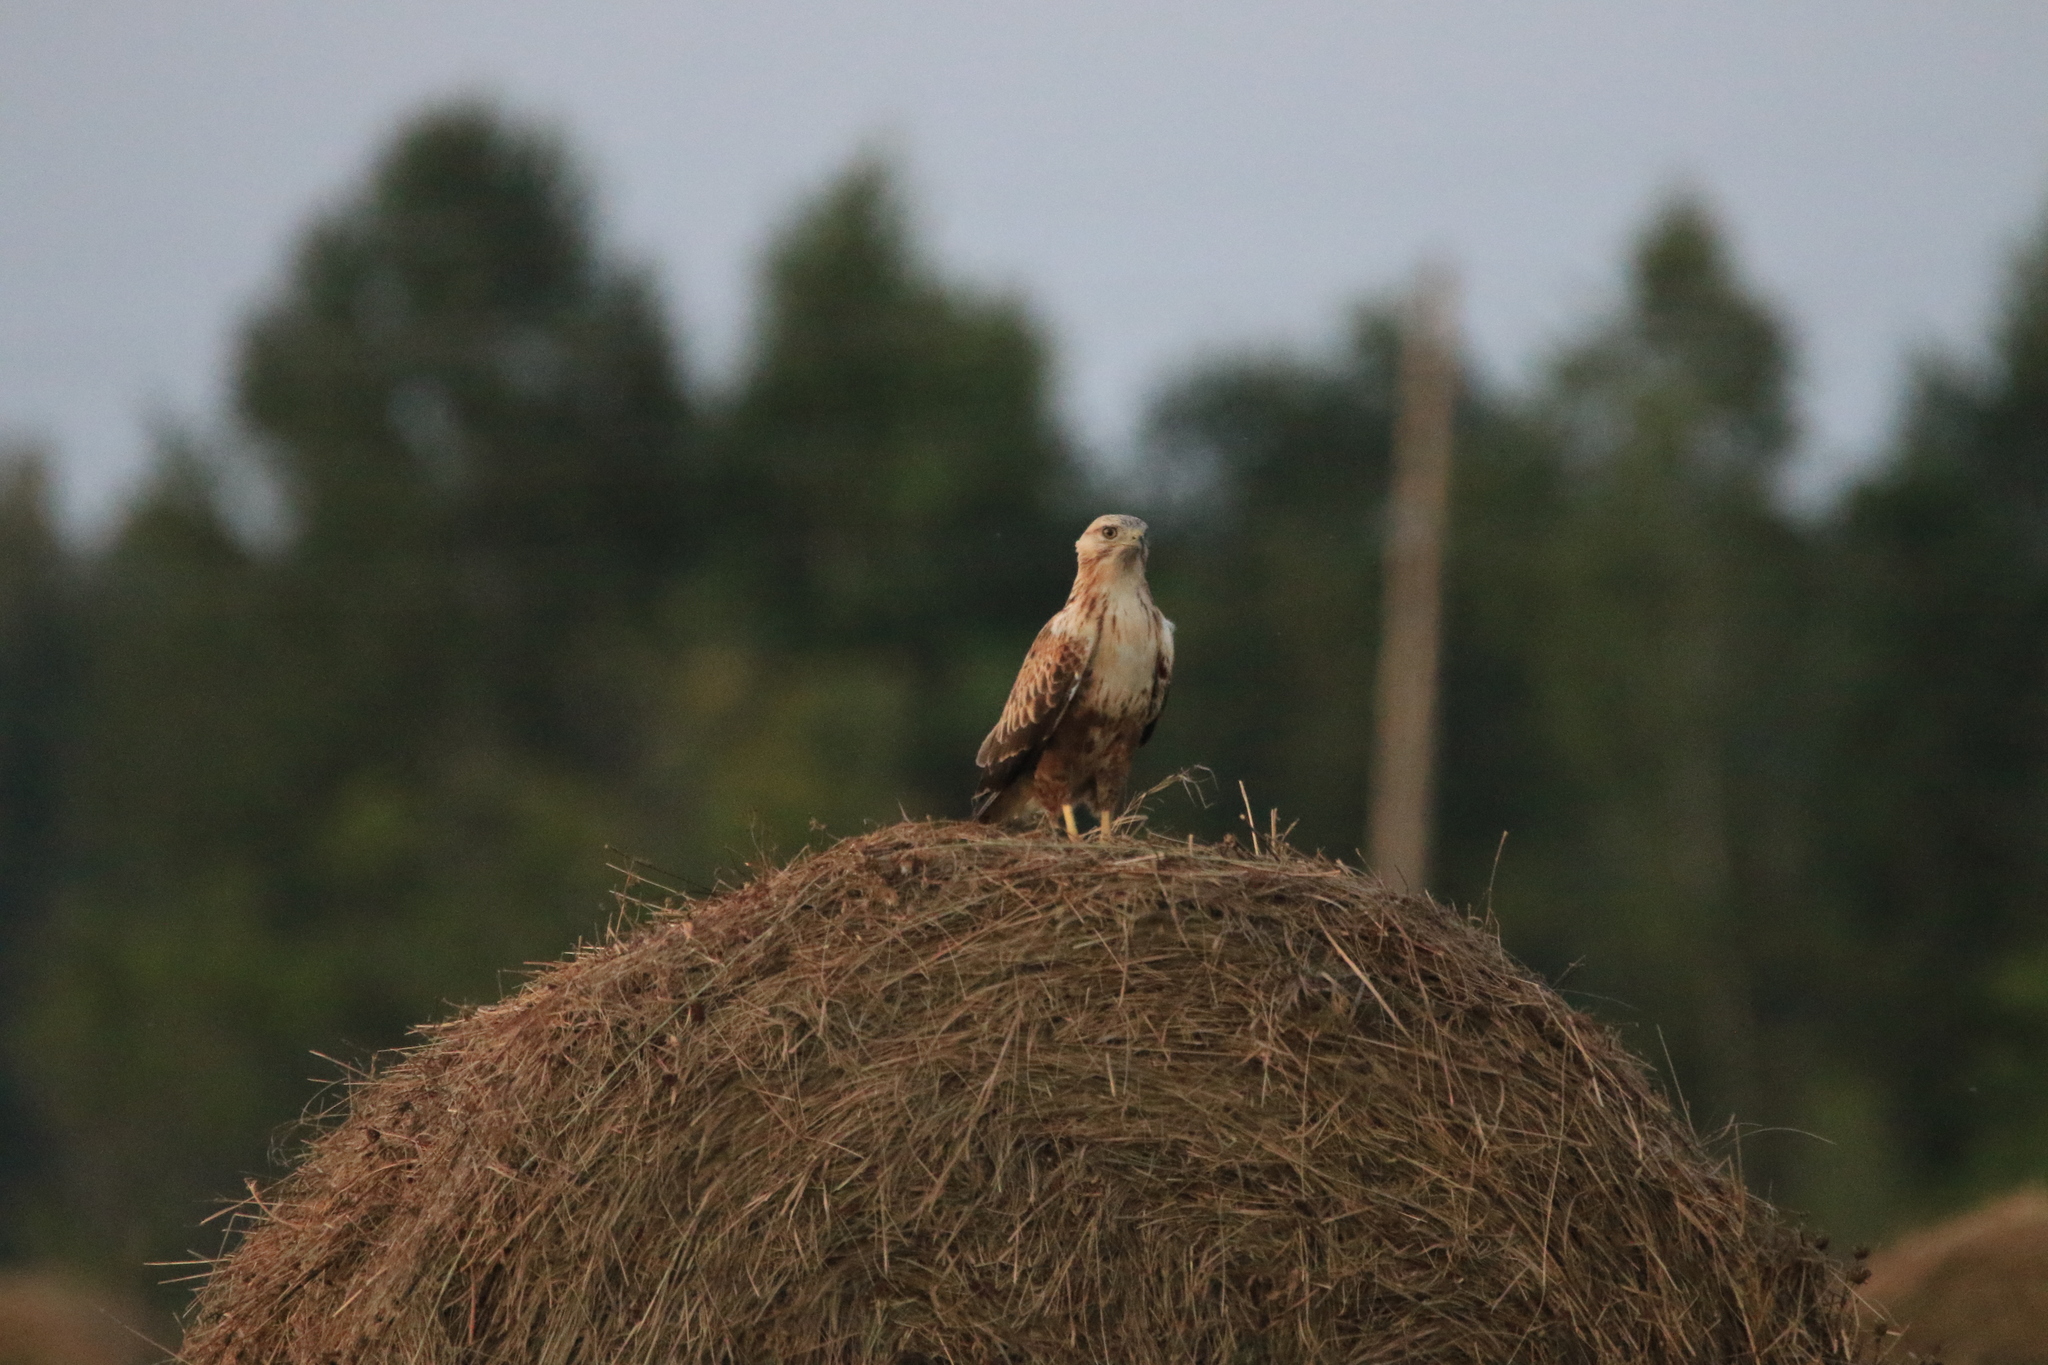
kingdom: Animalia
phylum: Chordata
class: Aves
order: Accipitriformes
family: Accipitridae
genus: Buteo
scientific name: Buteo japonicus
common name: Eastern buzzard
